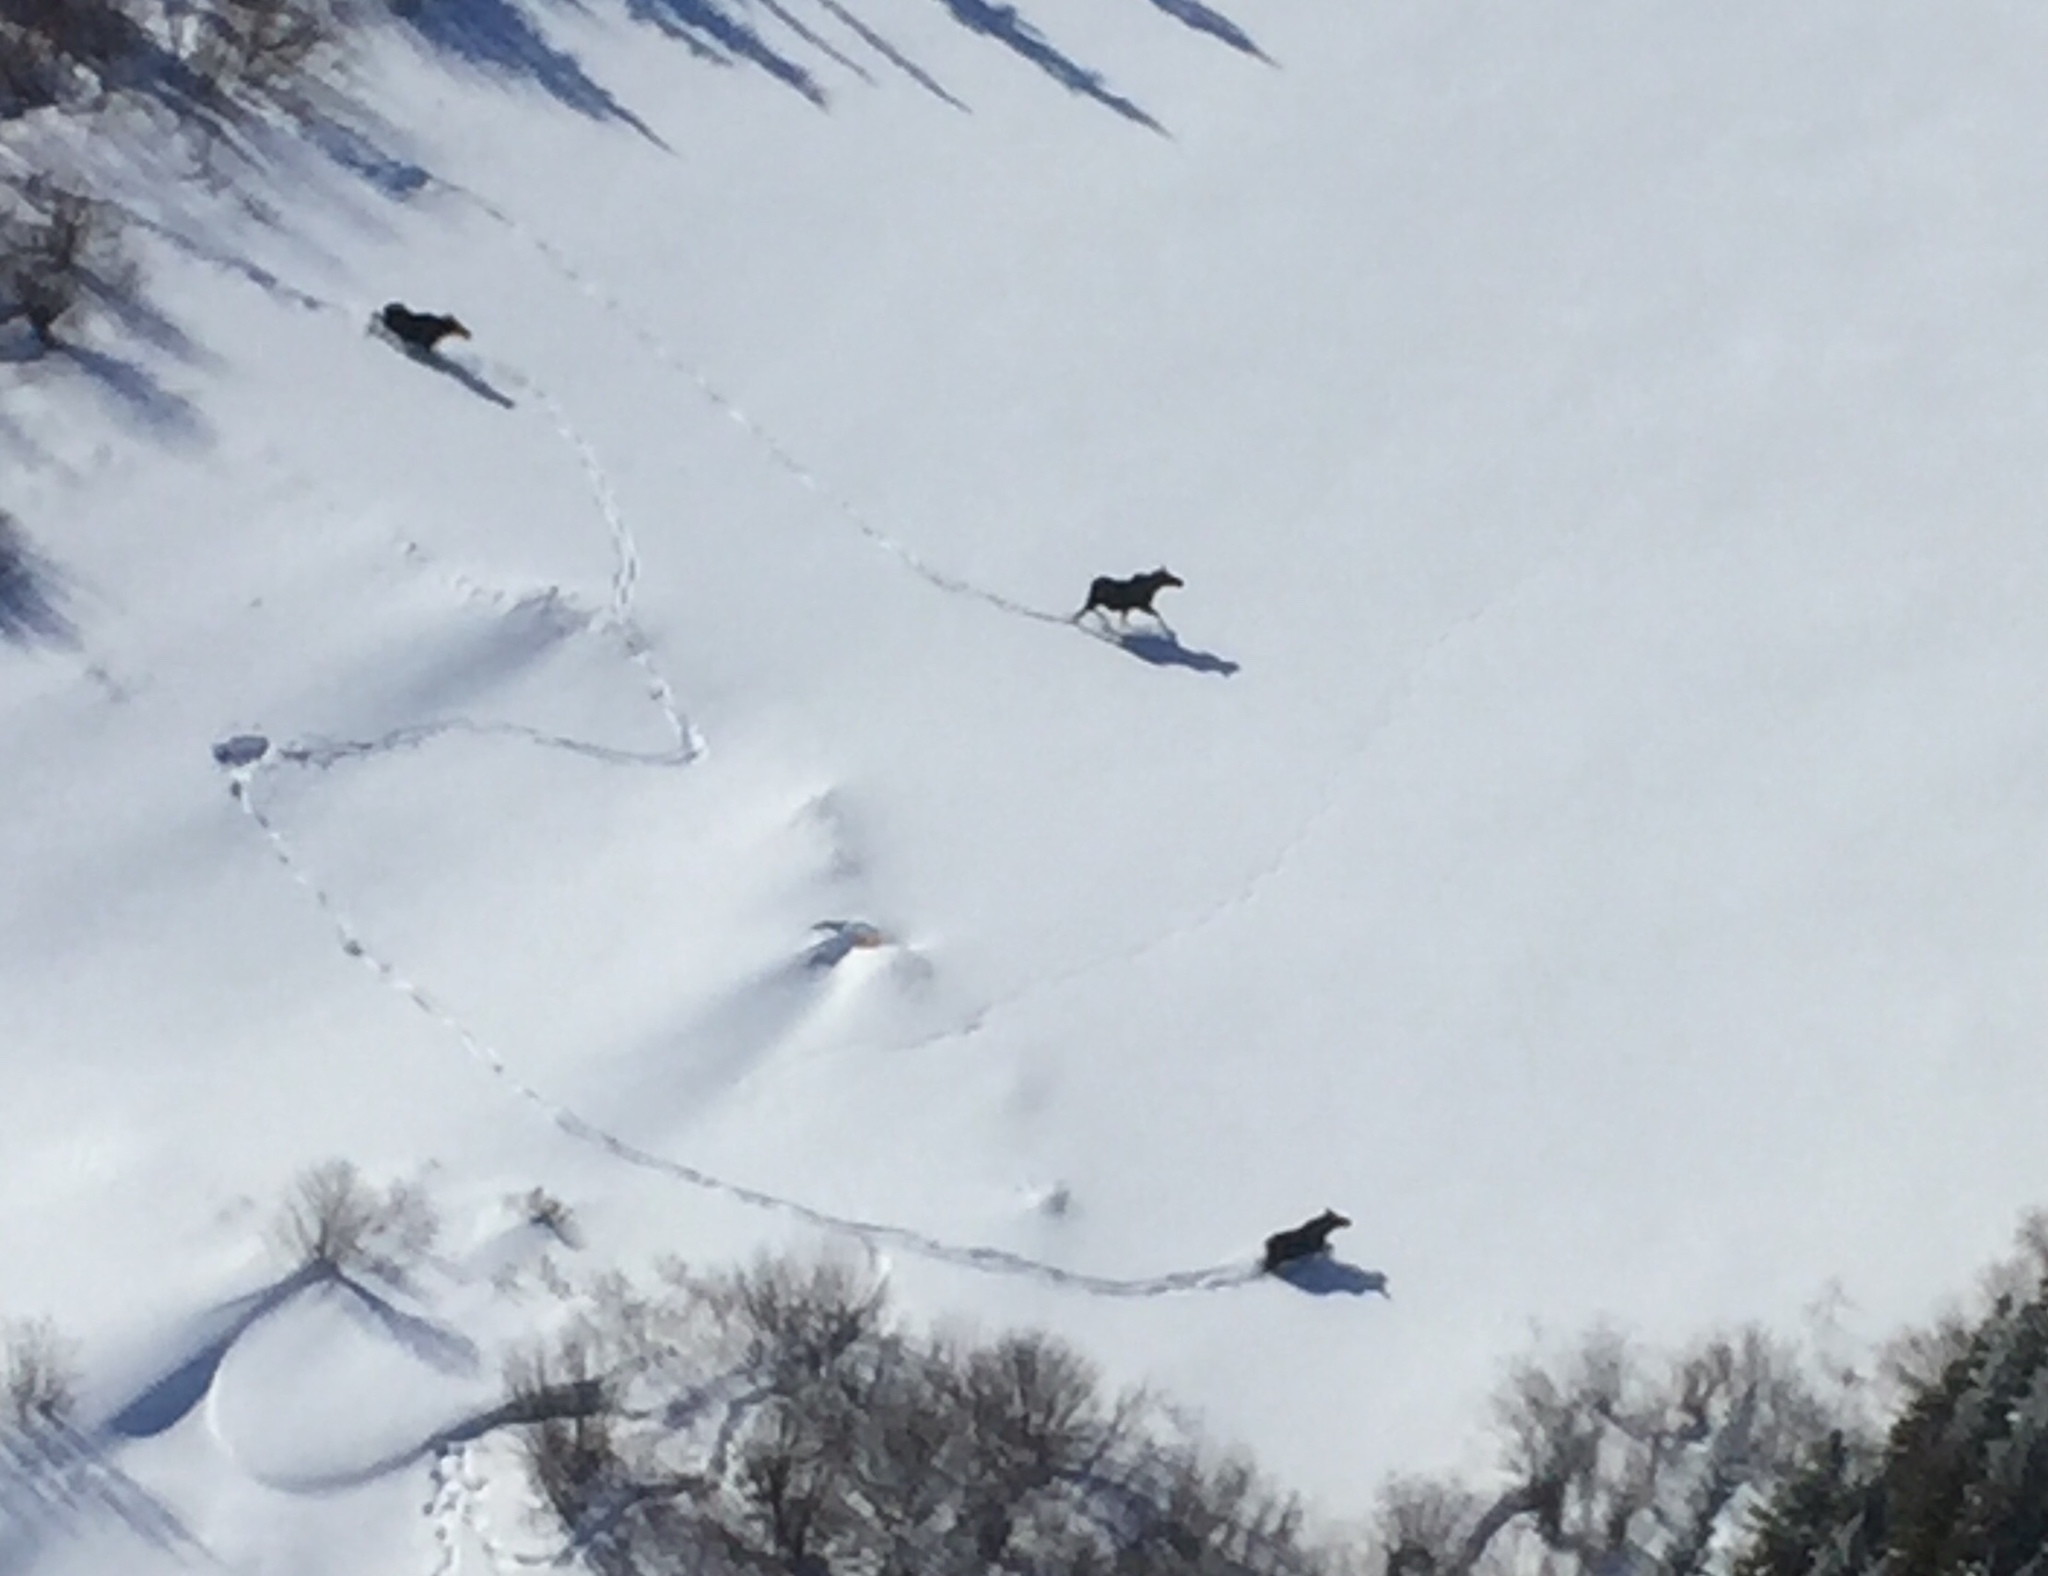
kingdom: Animalia
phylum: Chordata
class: Mammalia
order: Artiodactyla
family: Cervidae
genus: Alces
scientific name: Alces alces
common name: Moose
